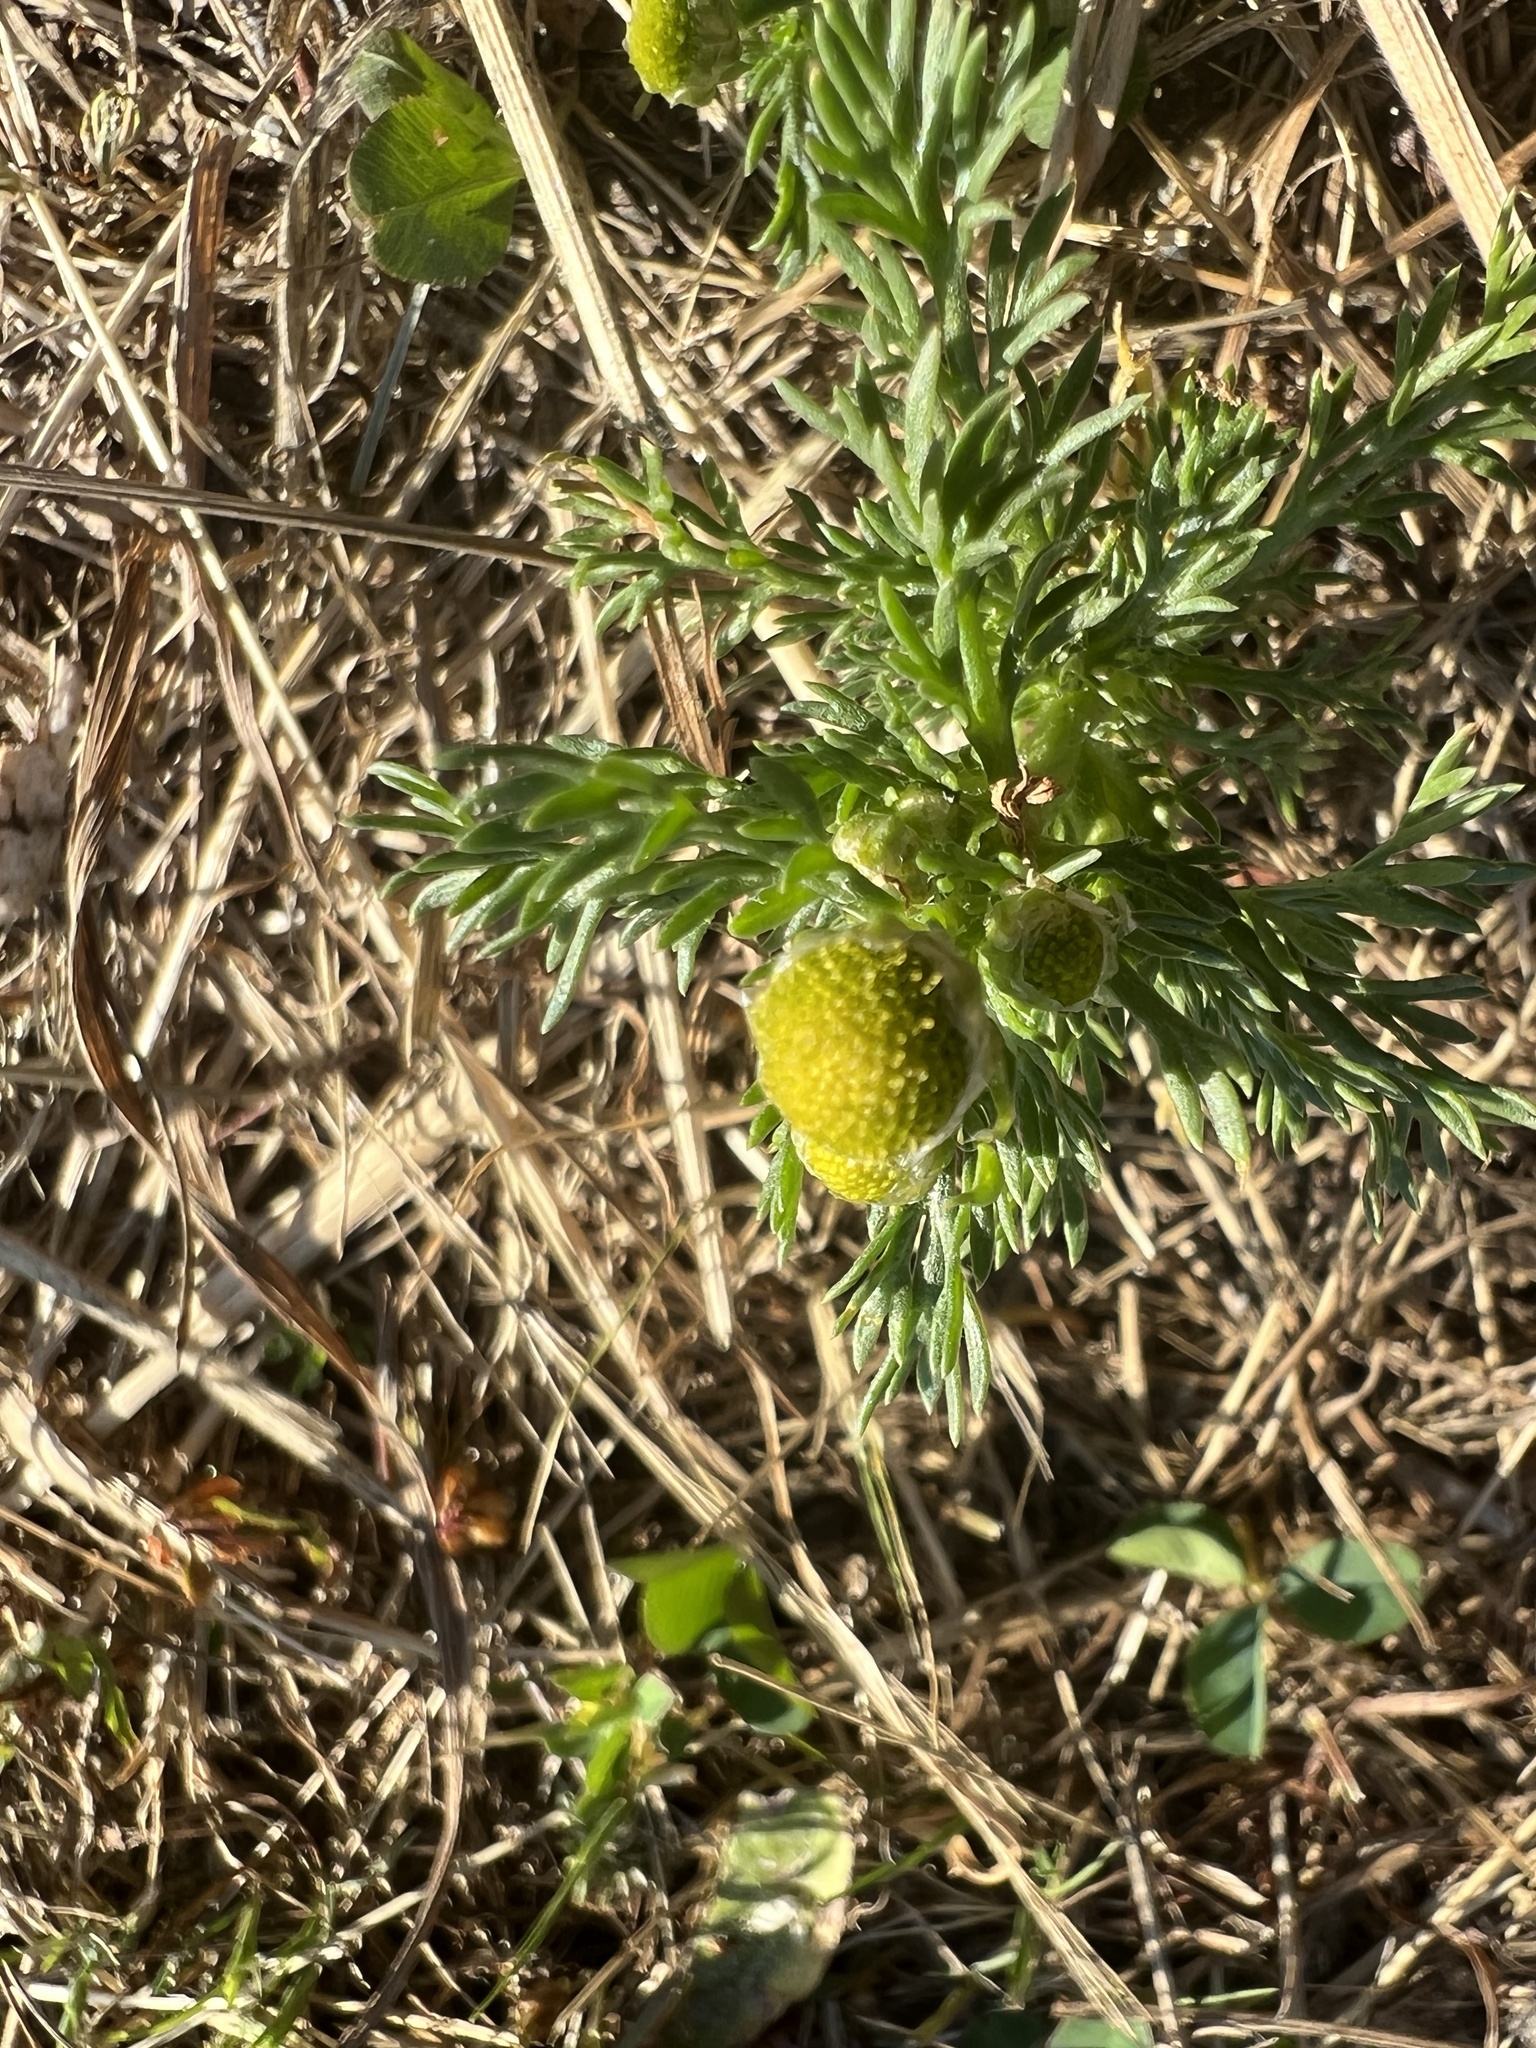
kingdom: Plantae
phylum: Tracheophyta
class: Magnoliopsida
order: Asterales
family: Asteraceae
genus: Matricaria
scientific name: Matricaria discoidea
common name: Disc mayweed
